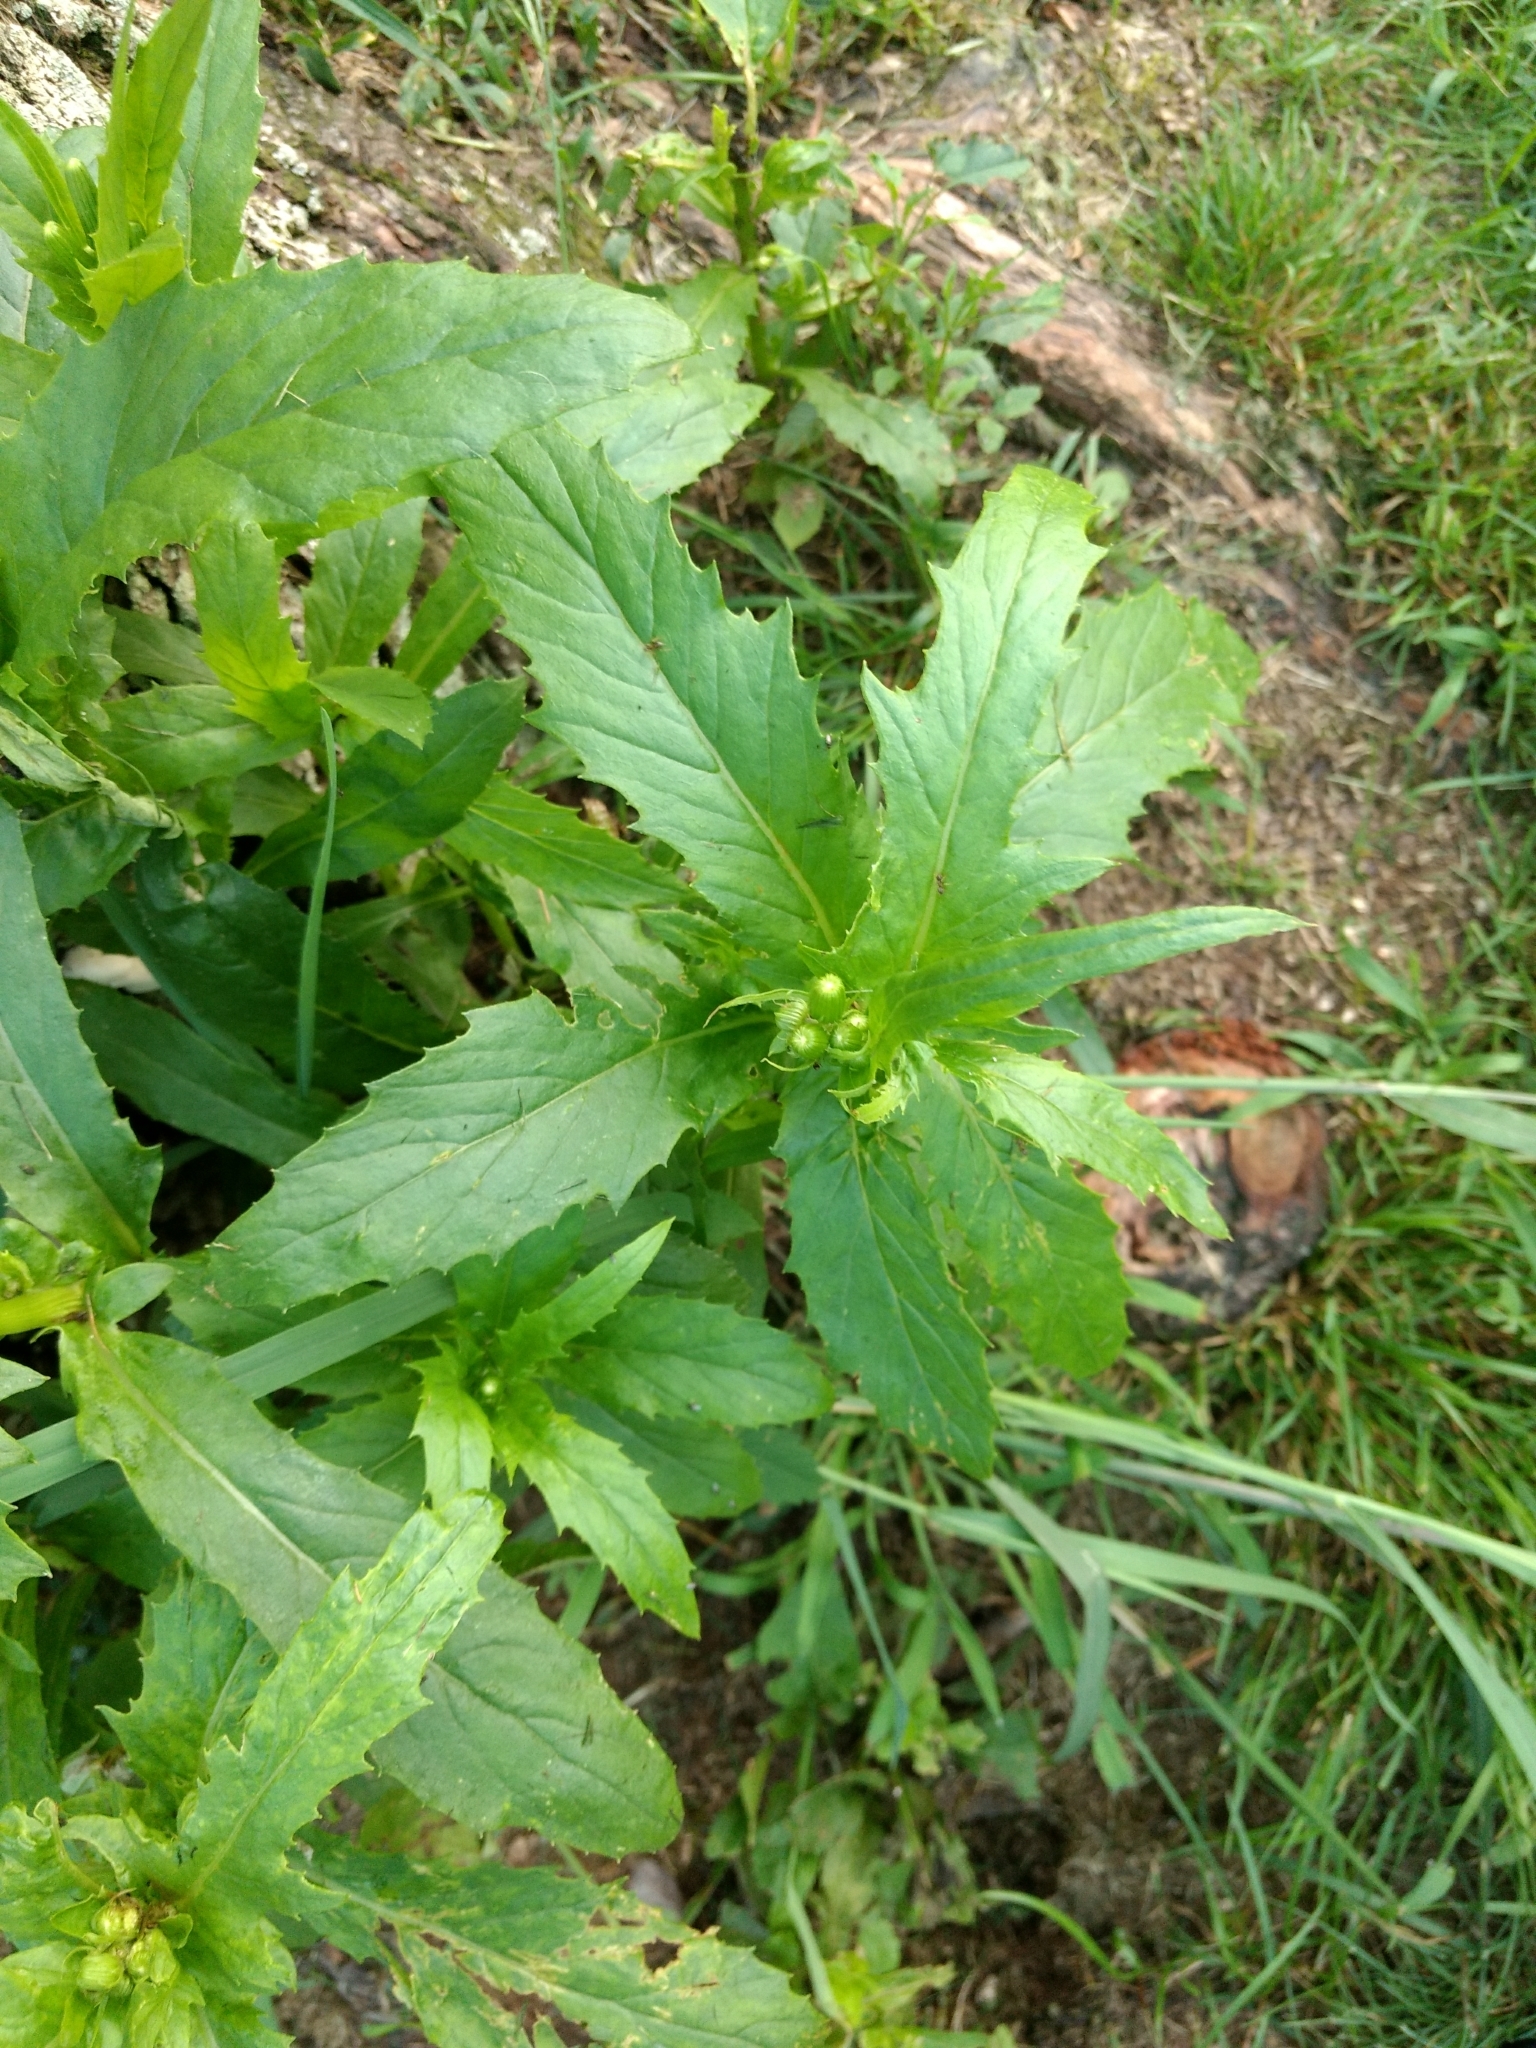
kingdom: Plantae
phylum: Tracheophyta
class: Magnoliopsida
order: Asterales
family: Asteraceae
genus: Erechtites
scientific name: Erechtites hieraciifolius
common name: American burnweed
